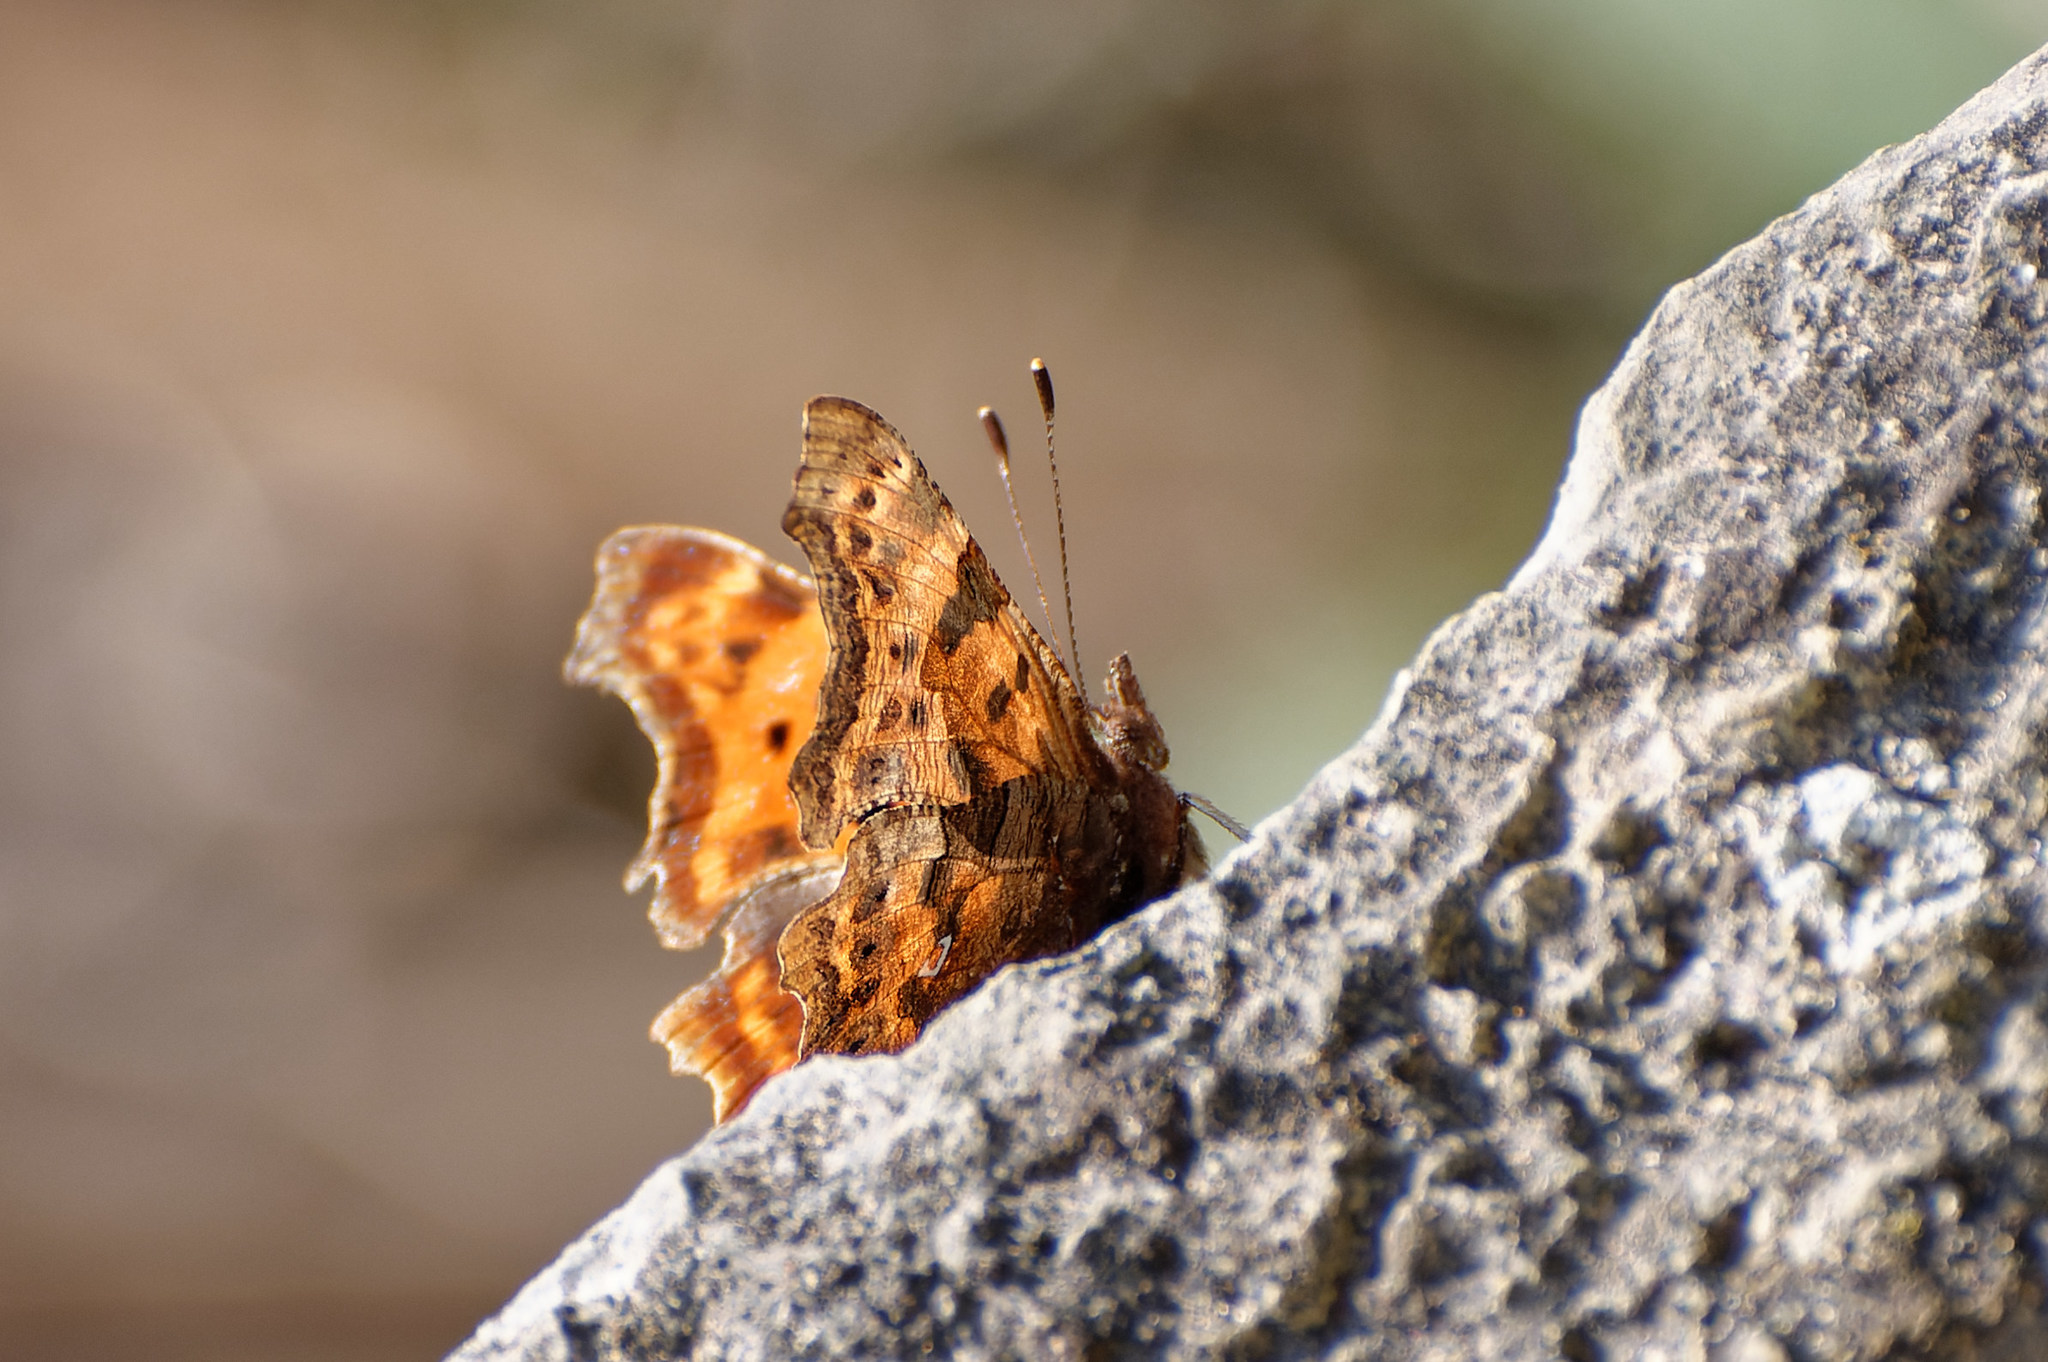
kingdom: Animalia
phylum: Arthropoda
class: Insecta
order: Lepidoptera
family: Nymphalidae
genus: Polygonia
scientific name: Polygonia c-album
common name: Comma
